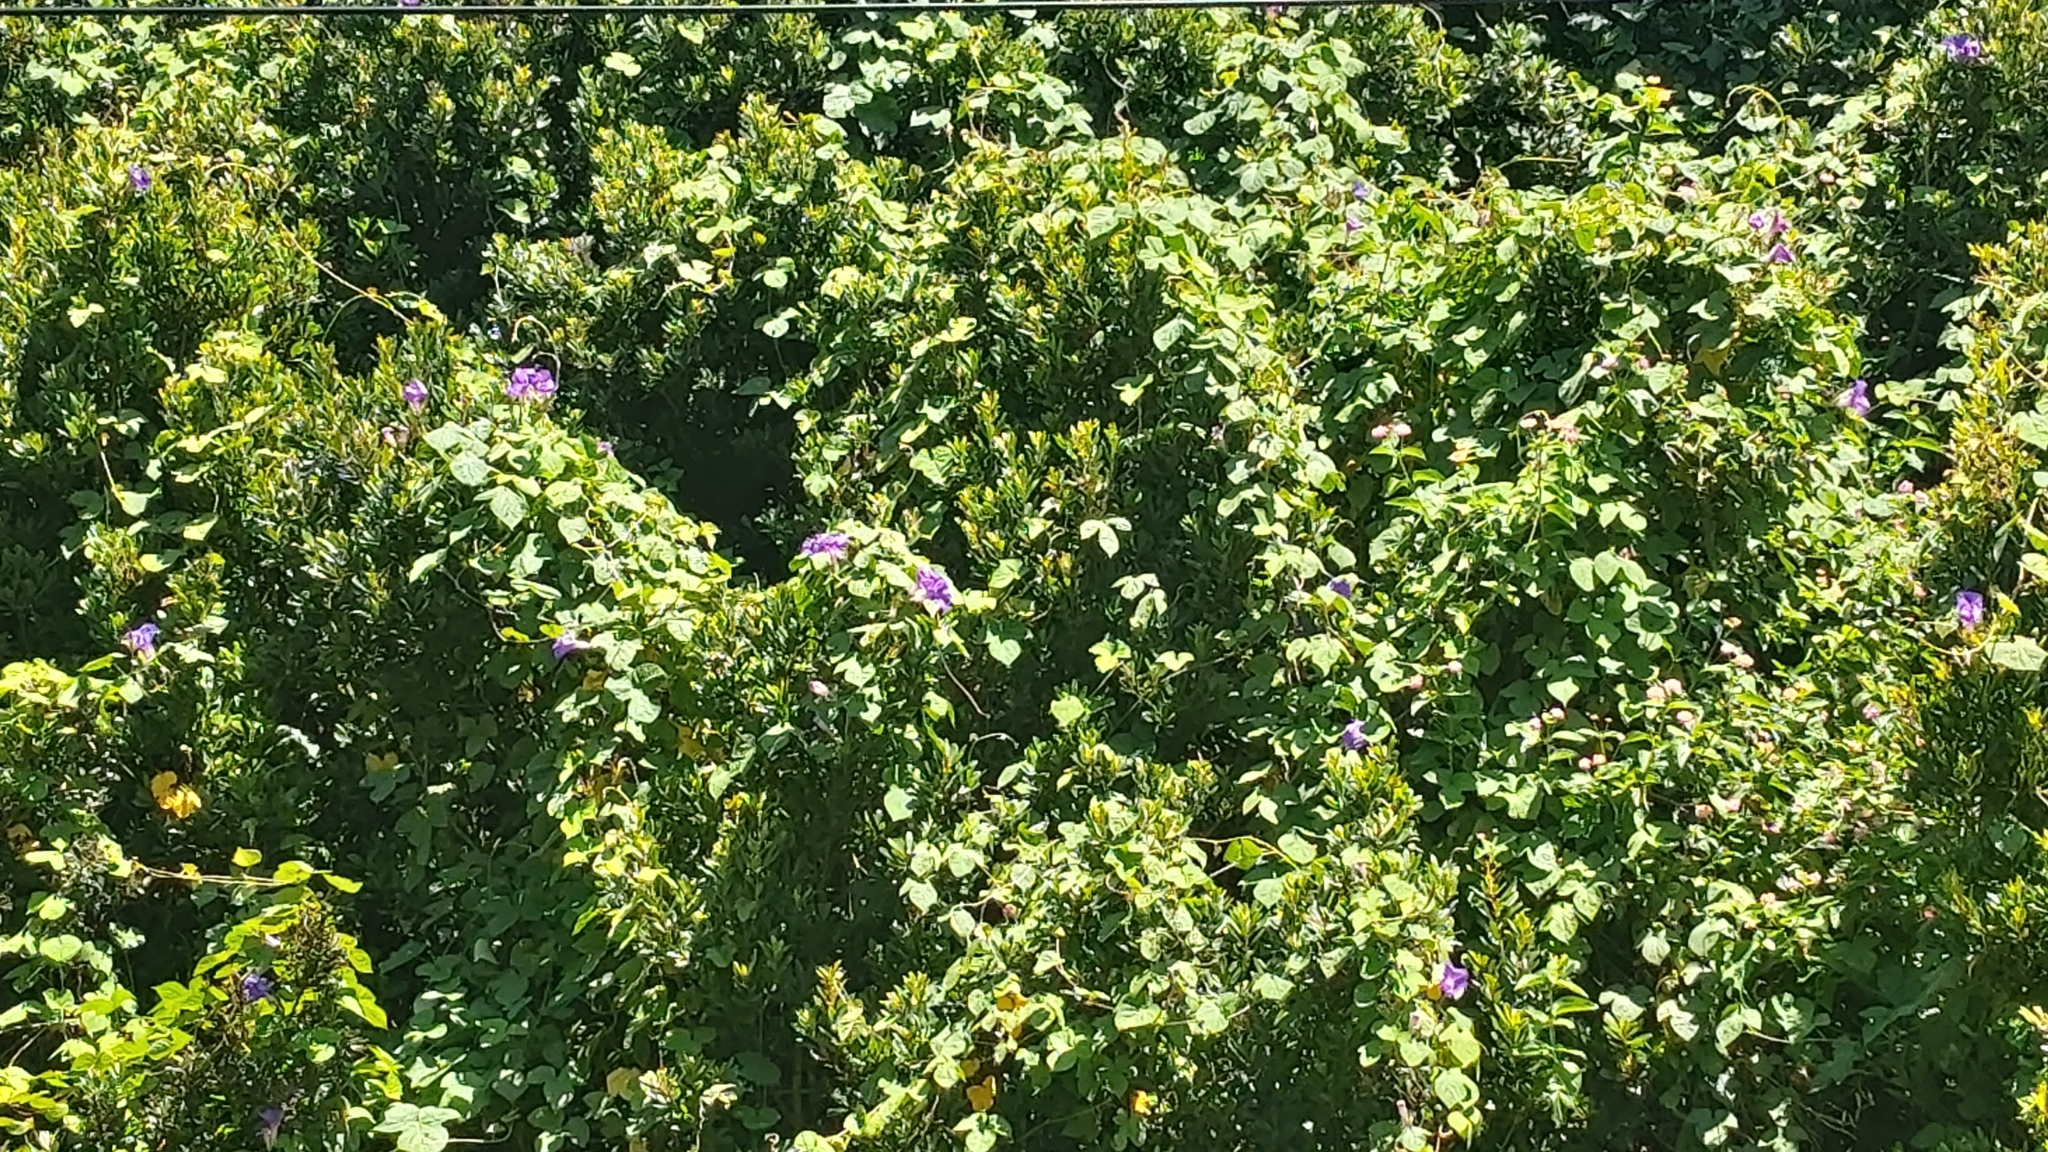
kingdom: Plantae
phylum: Tracheophyta
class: Magnoliopsida
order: Solanales
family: Convolvulaceae
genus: Ipomoea
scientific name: Ipomoea indica
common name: Blue dawnflower
